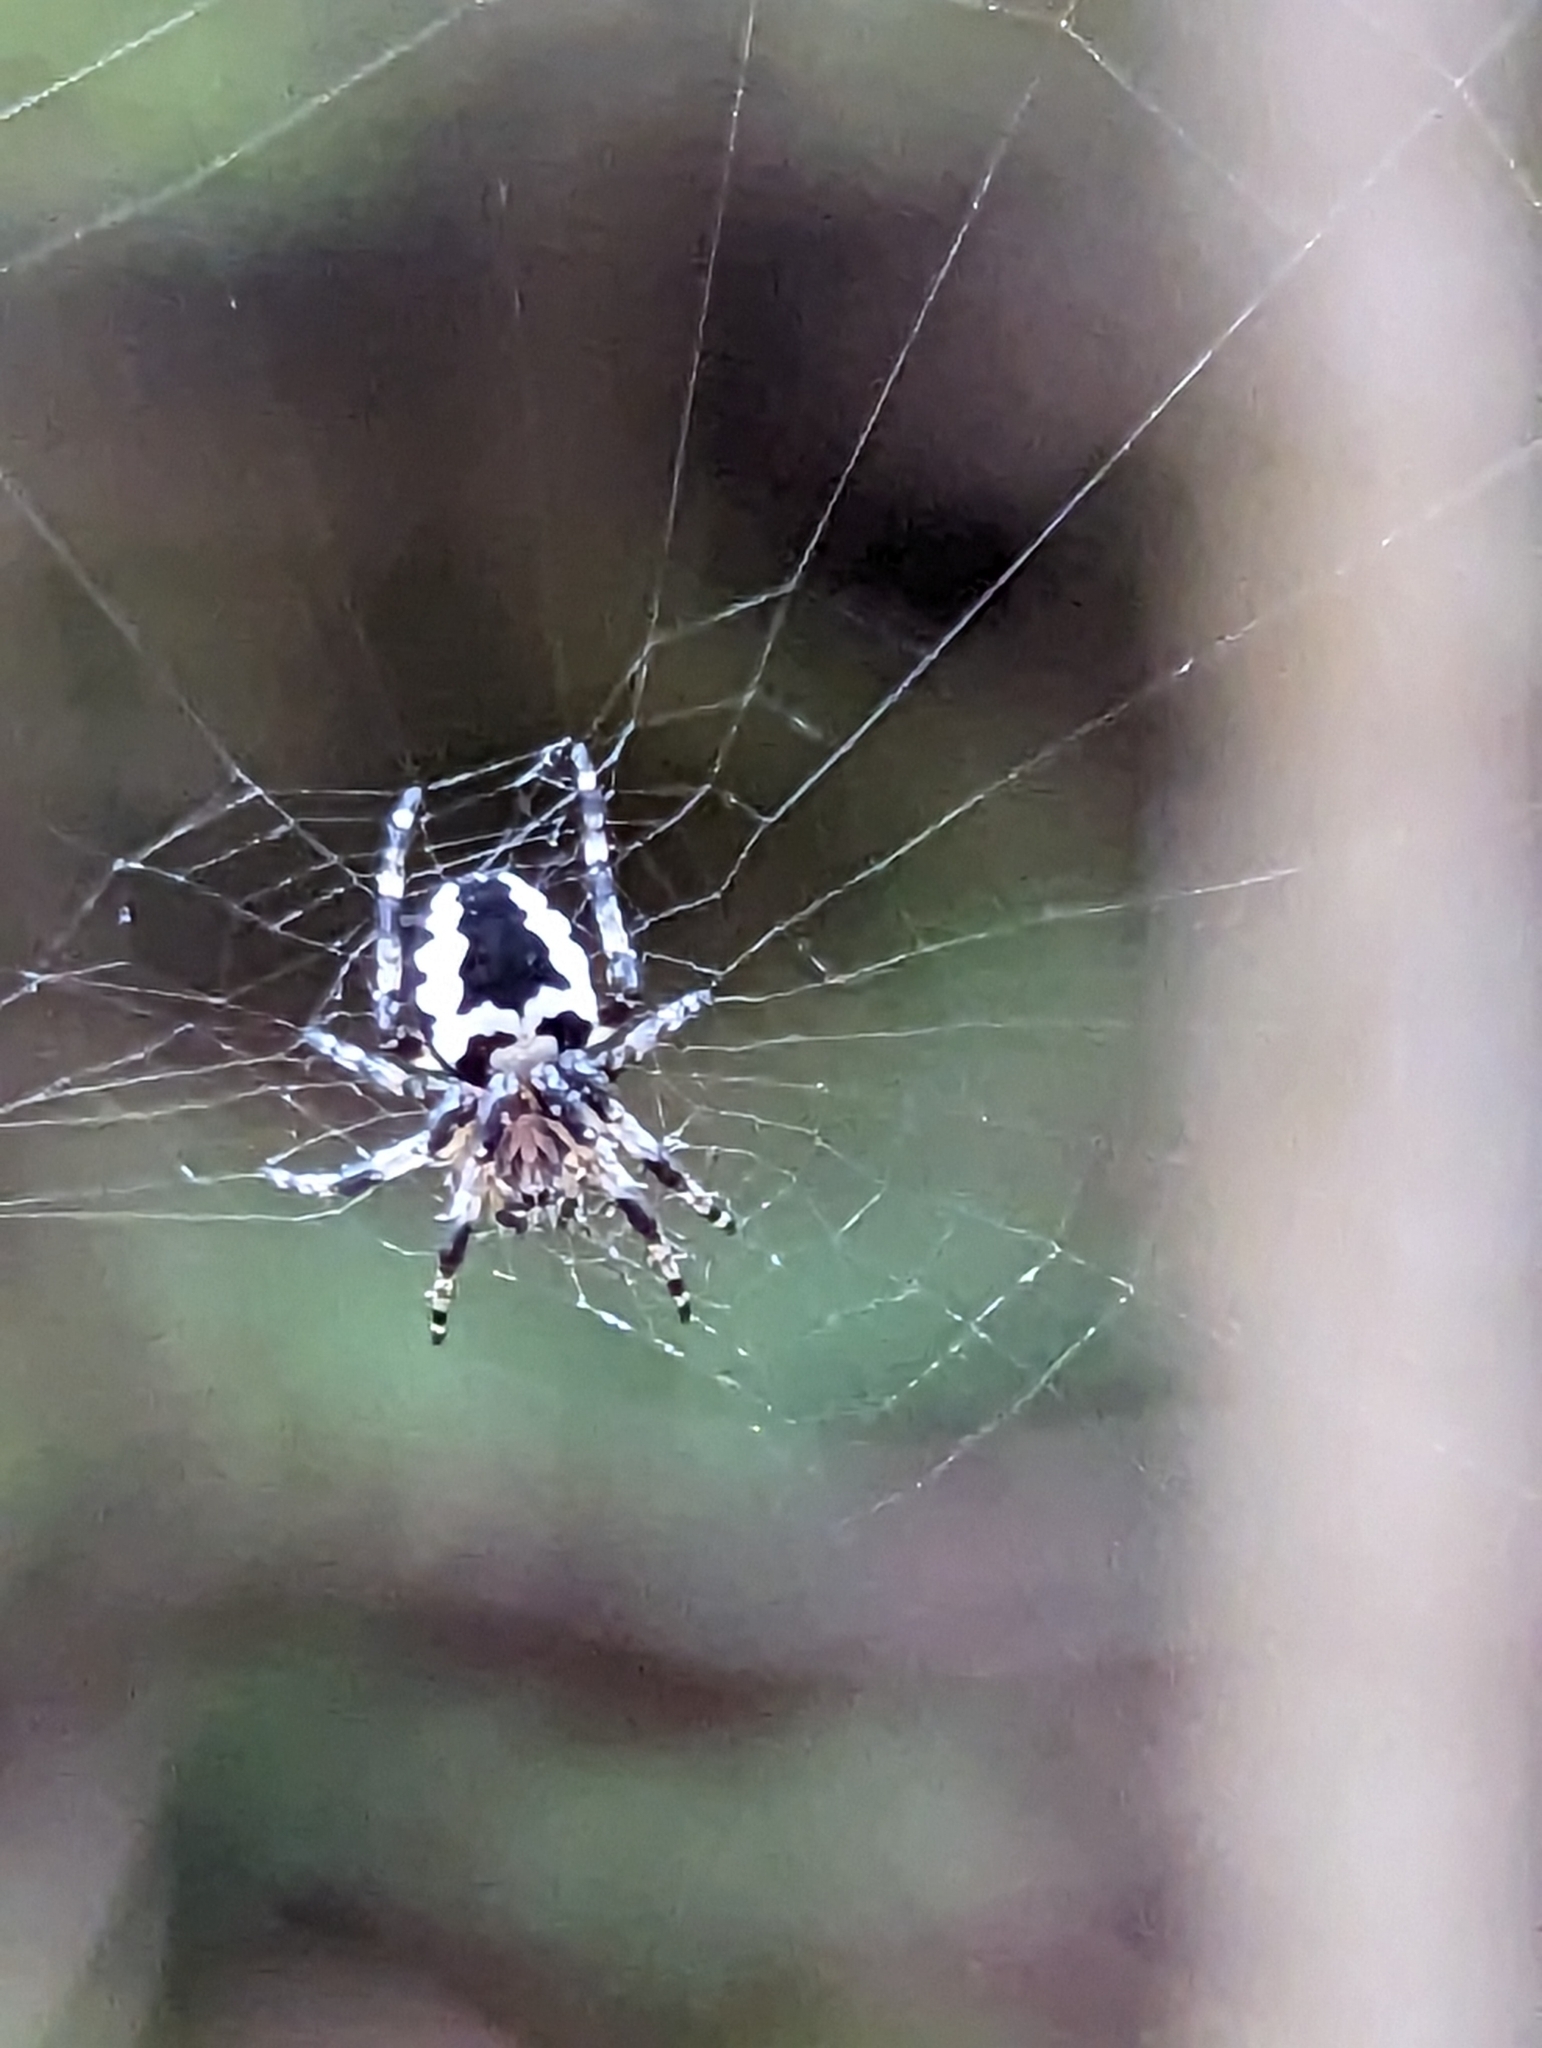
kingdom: Animalia
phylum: Arthropoda
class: Arachnida
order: Araneae
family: Araneidae
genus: Araneus
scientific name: Araneus nordmanni
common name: Nordmann's orbweaver
